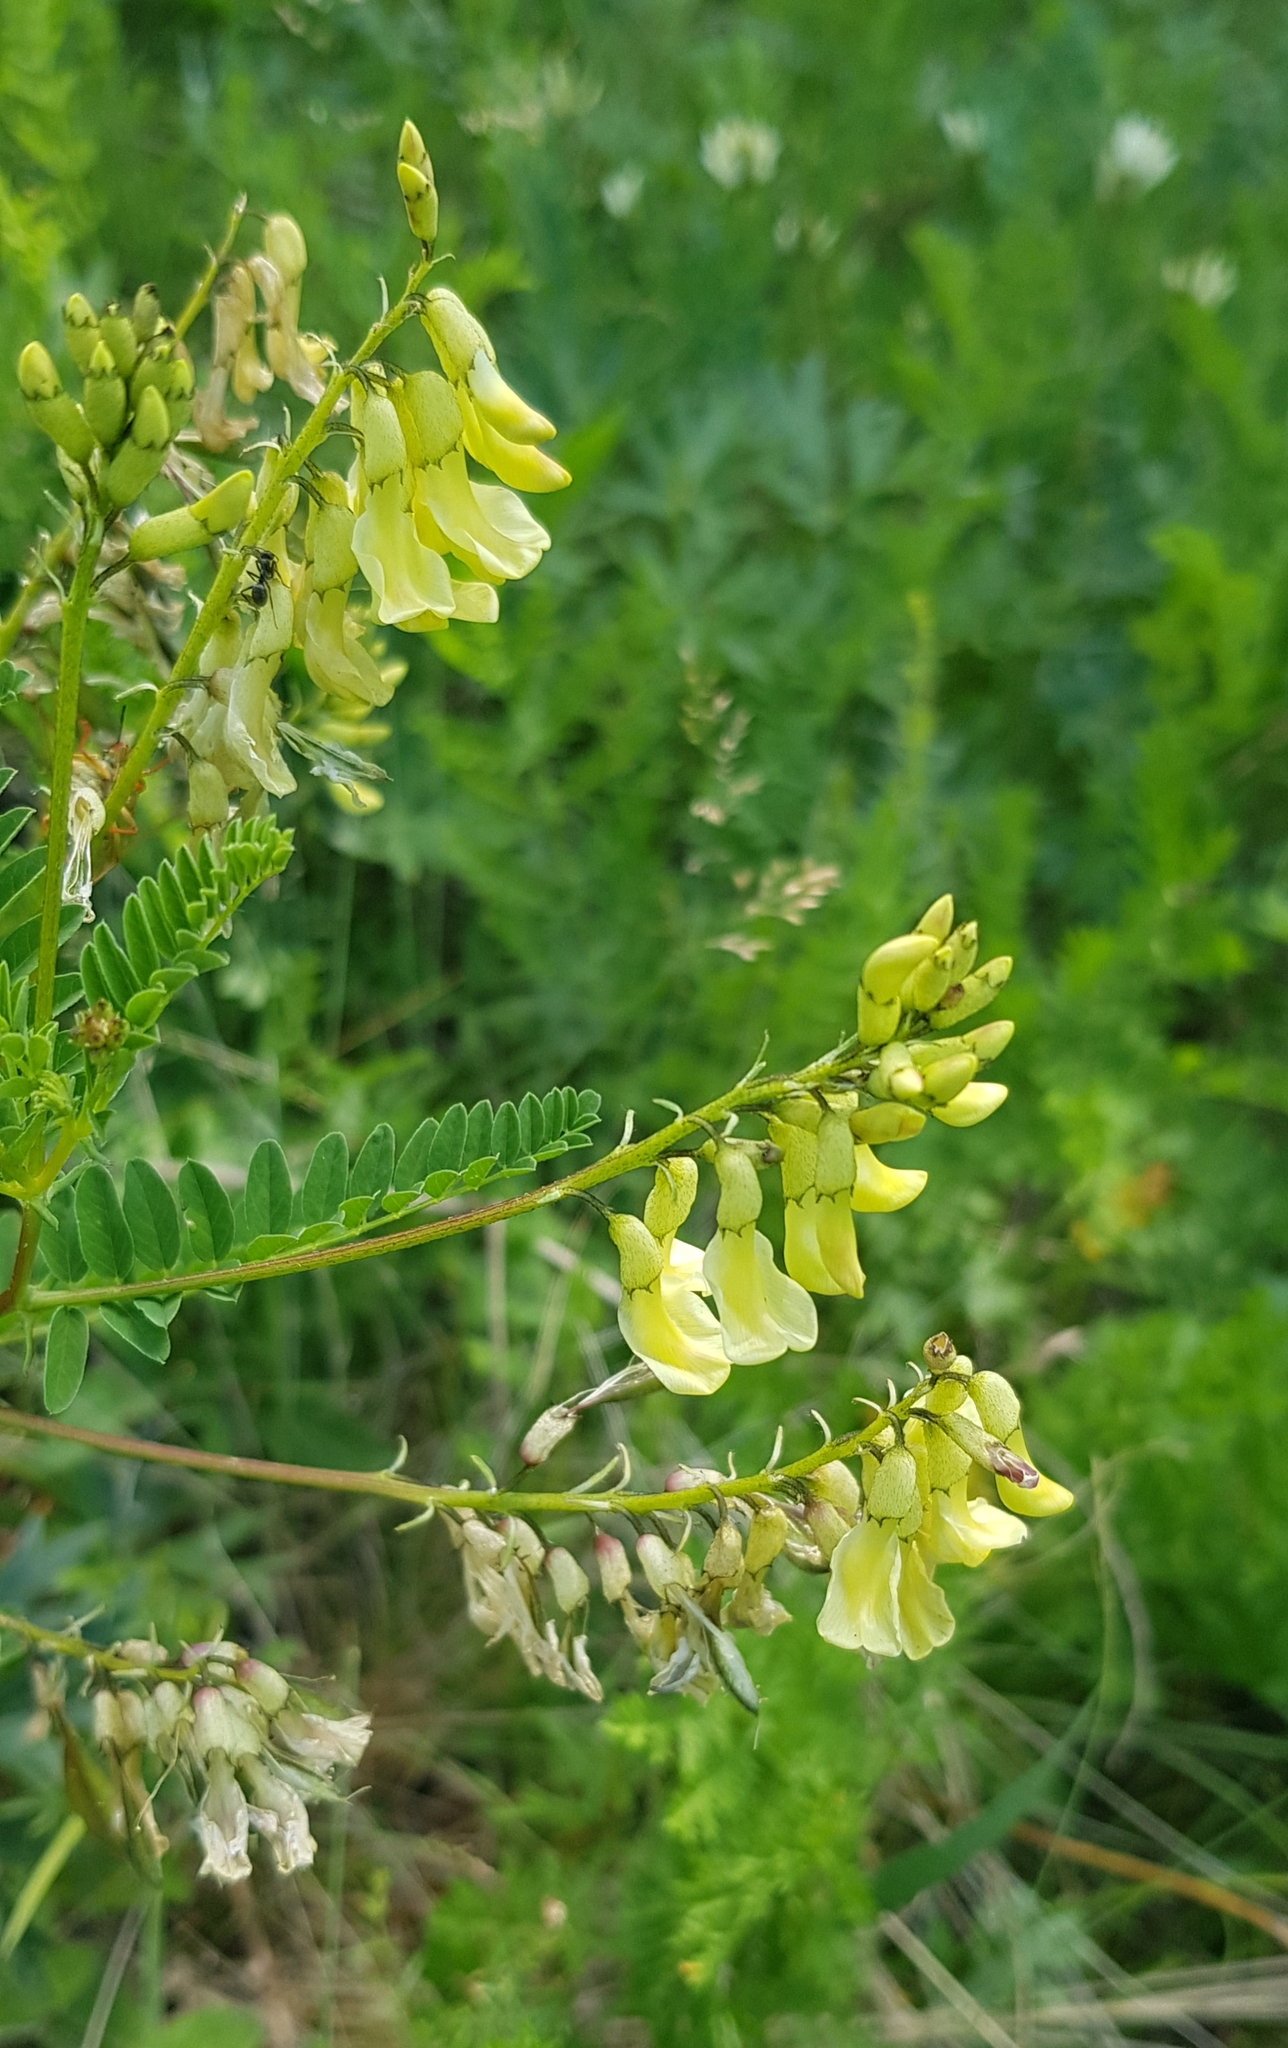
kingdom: Plantae
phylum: Tracheophyta
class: Magnoliopsida
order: Fabales
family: Fabaceae
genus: Astragalus
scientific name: Astragalus
